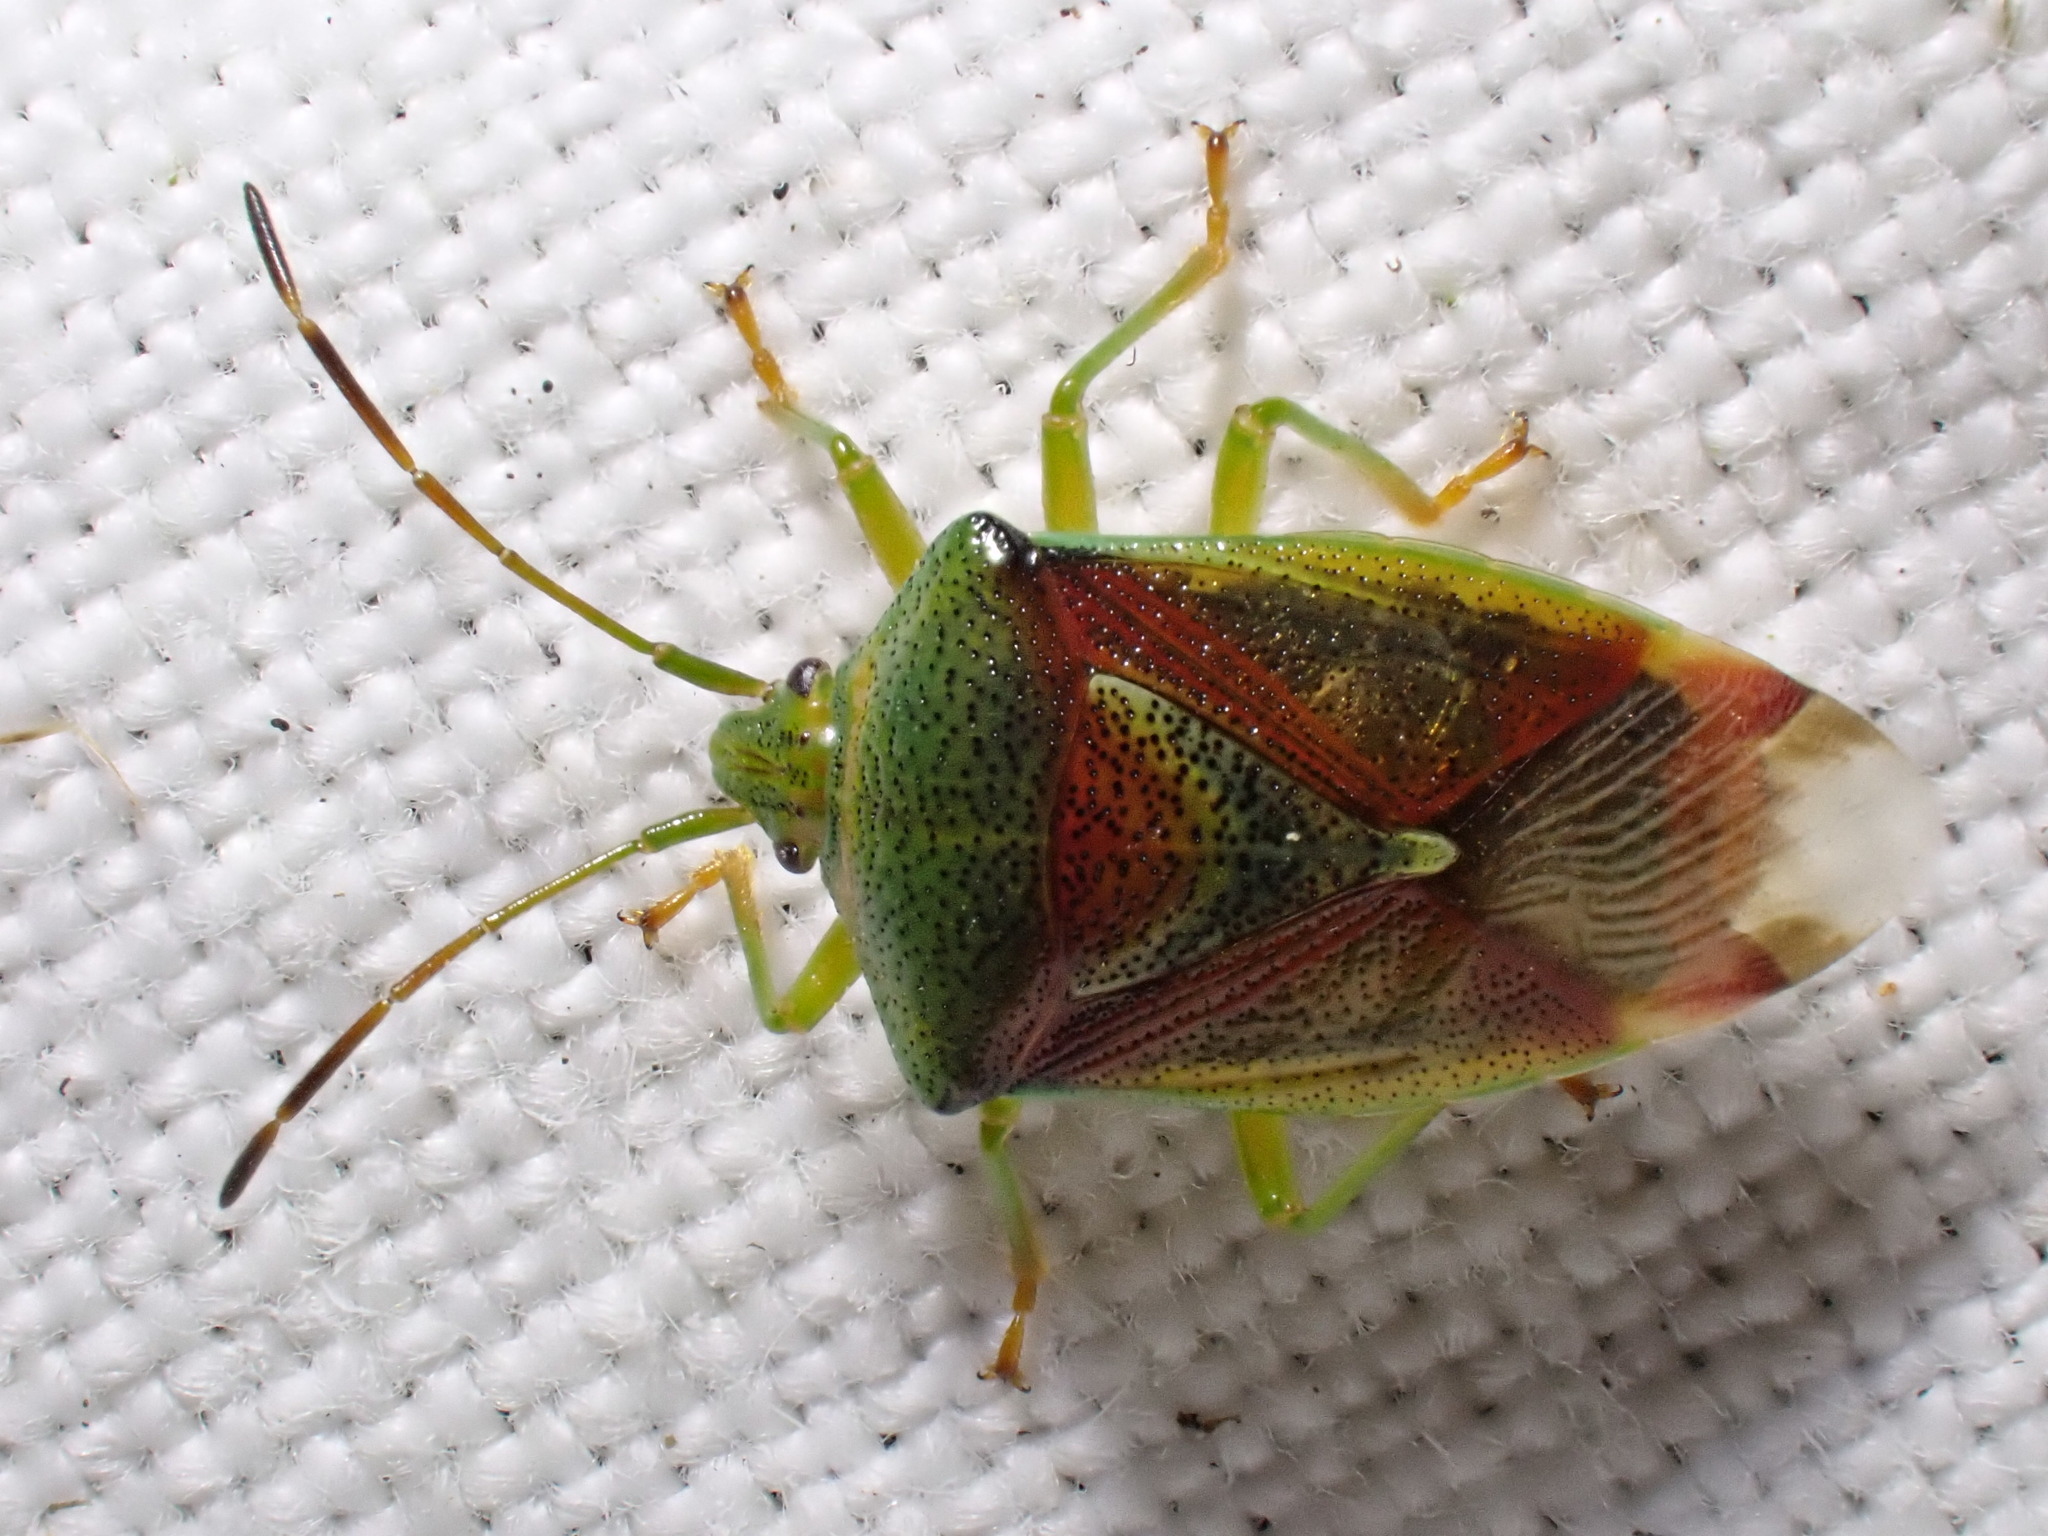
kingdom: Animalia
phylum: Arthropoda
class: Insecta
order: Hemiptera
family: Acanthosomatidae
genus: Elasmostethus
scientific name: Elasmostethus interstinctus
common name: Birch shieldbug
